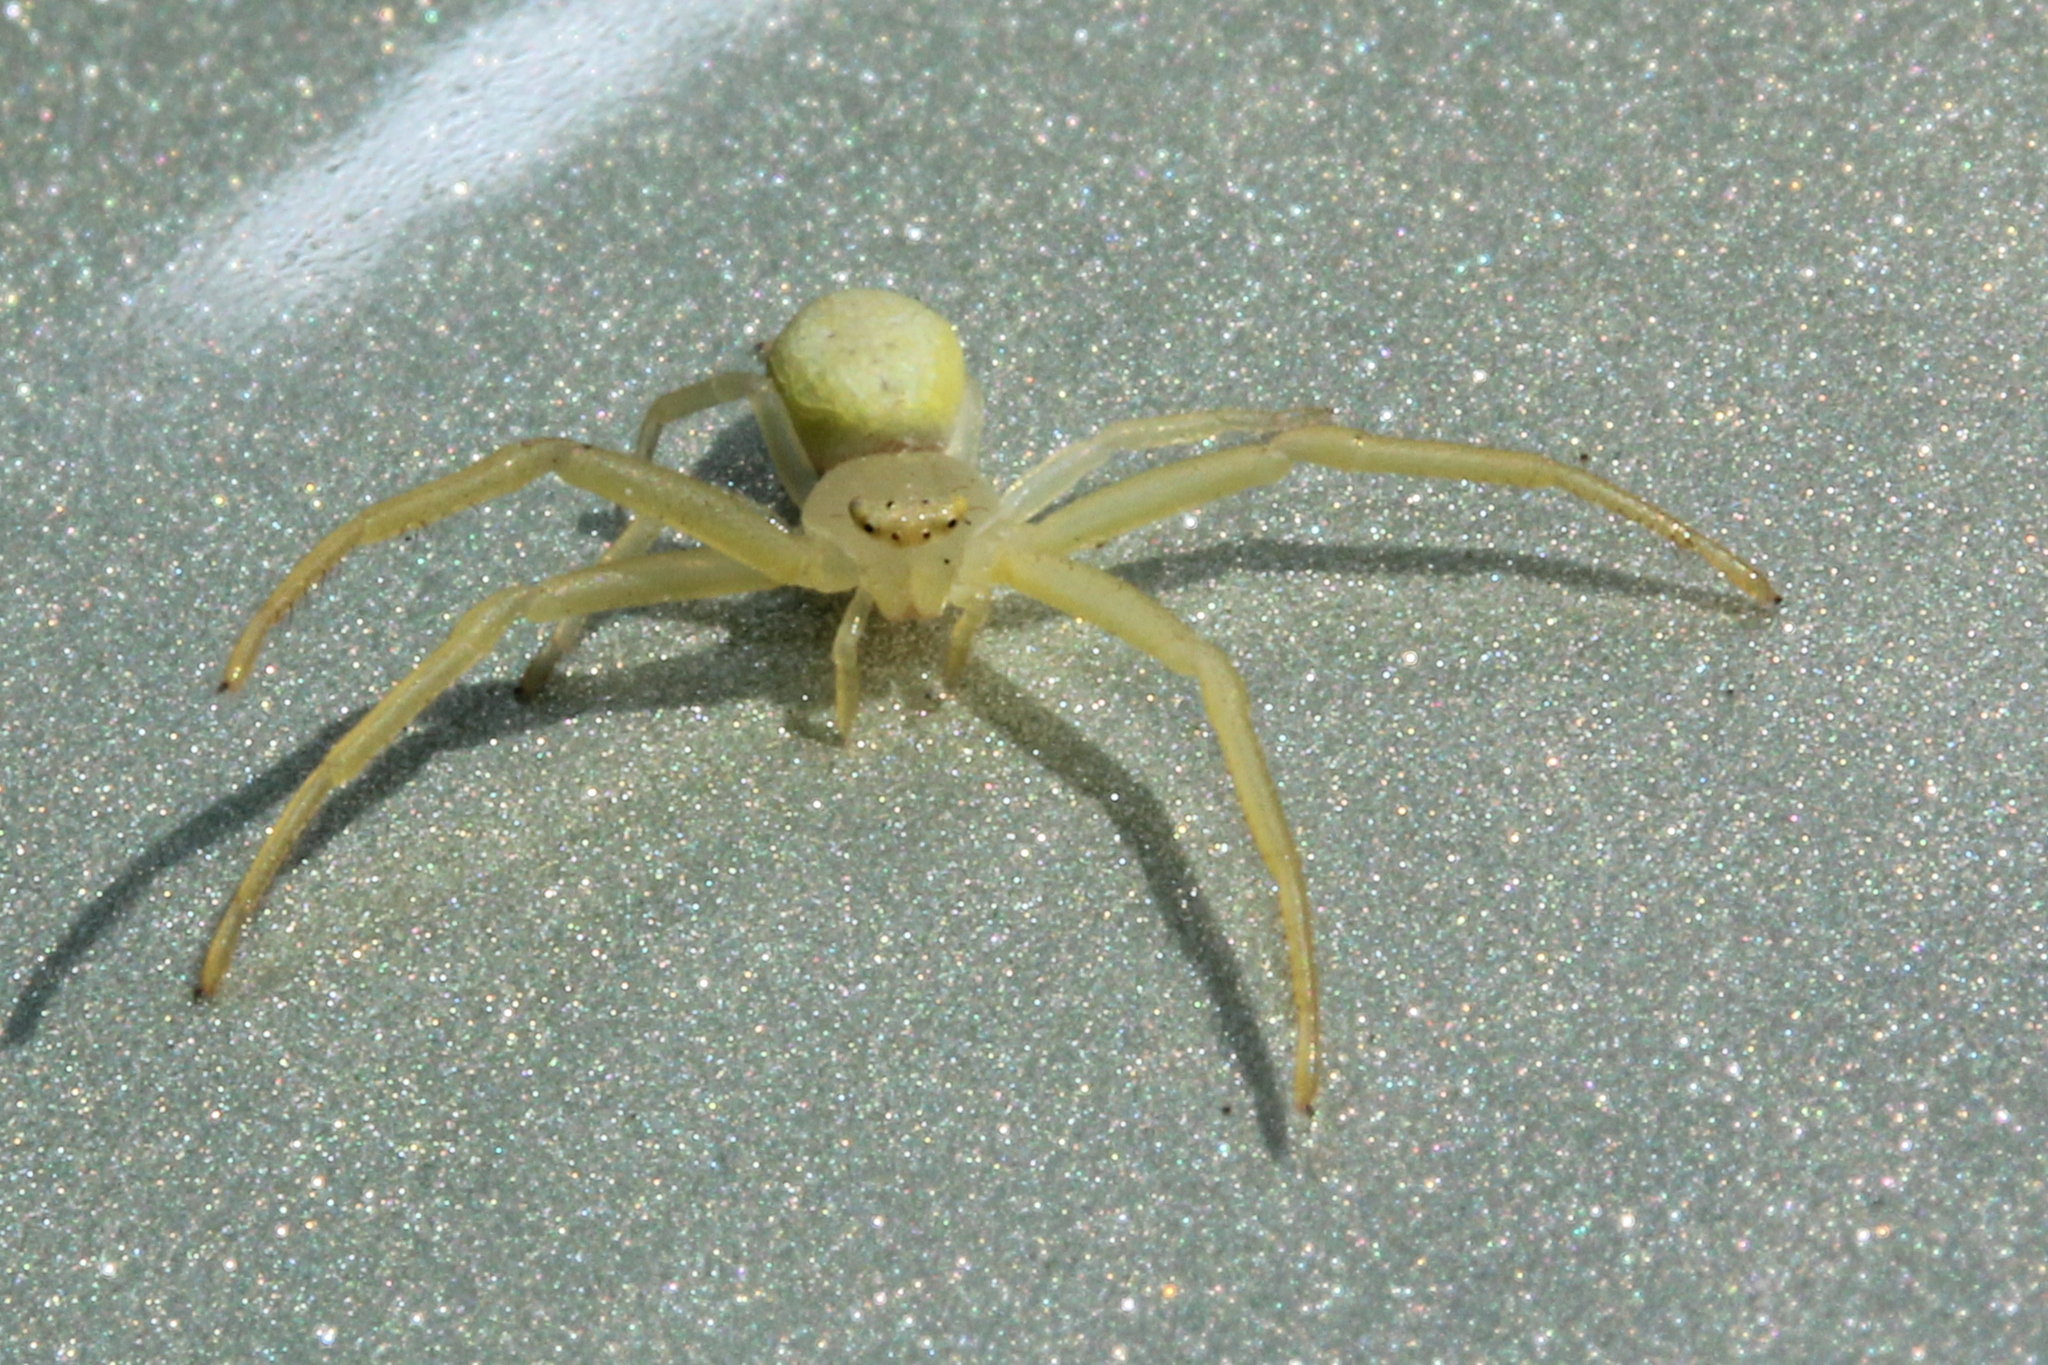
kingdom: Animalia
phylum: Arthropoda
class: Arachnida
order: Araneae
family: Thomisidae
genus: Misumessus
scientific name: Misumessus oblongus
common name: American green crab spider
